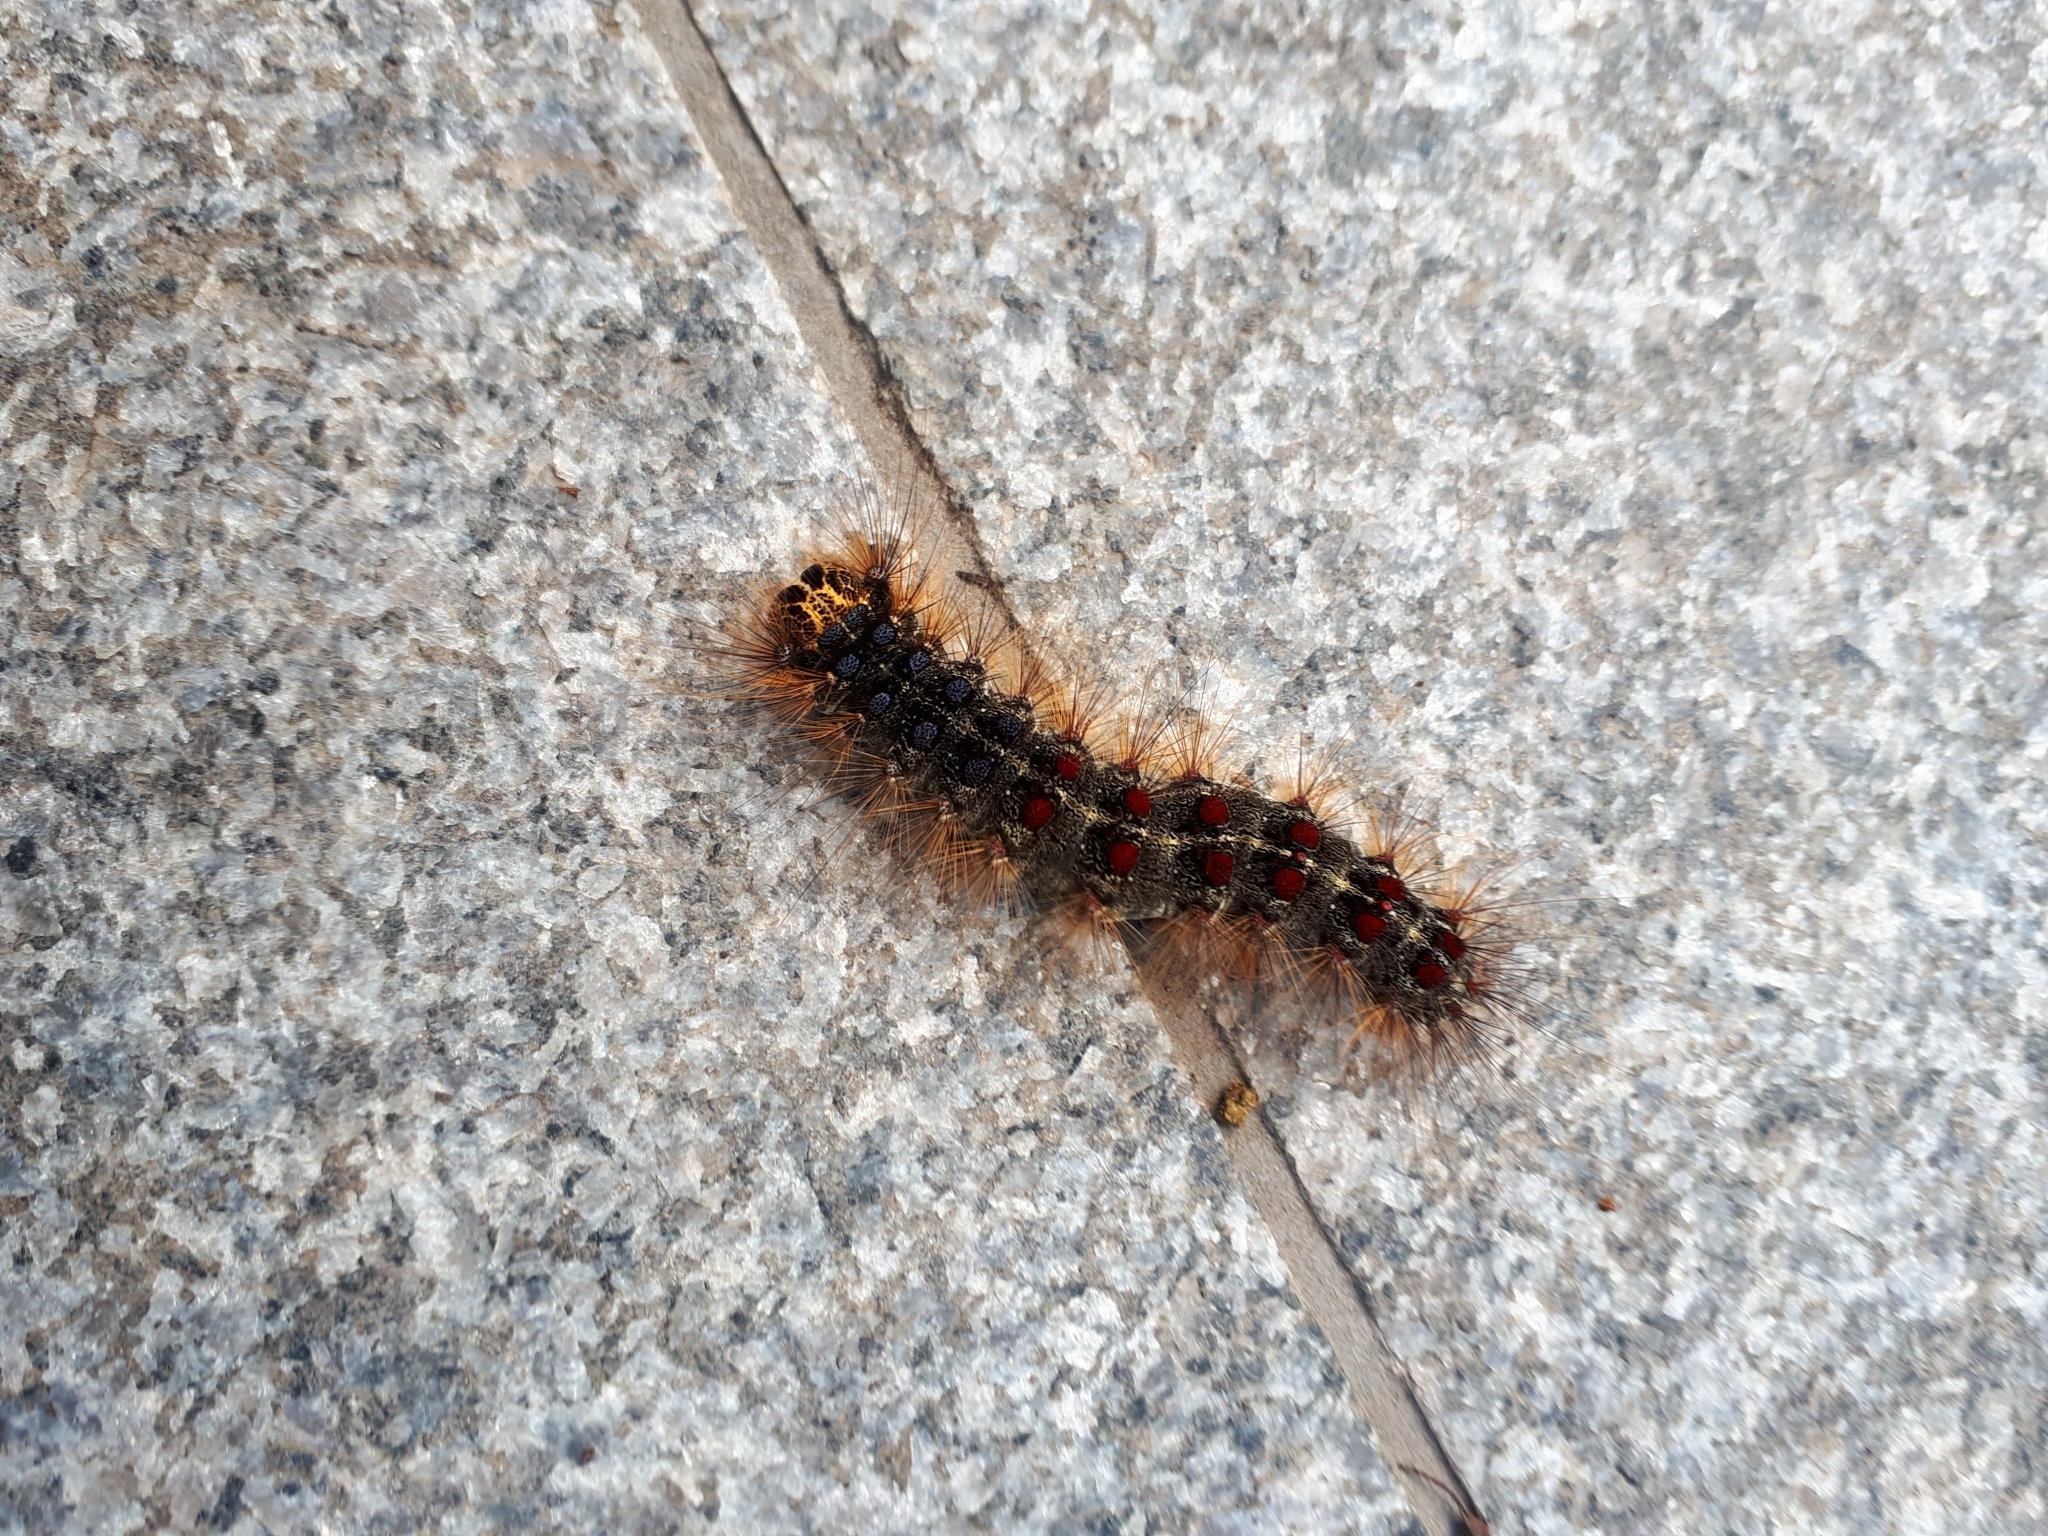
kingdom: Animalia
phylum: Arthropoda
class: Insecta
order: Lepidoptera
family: Erebidae
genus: Lymantria
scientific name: Lymantria dispar
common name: Gypsy moth
